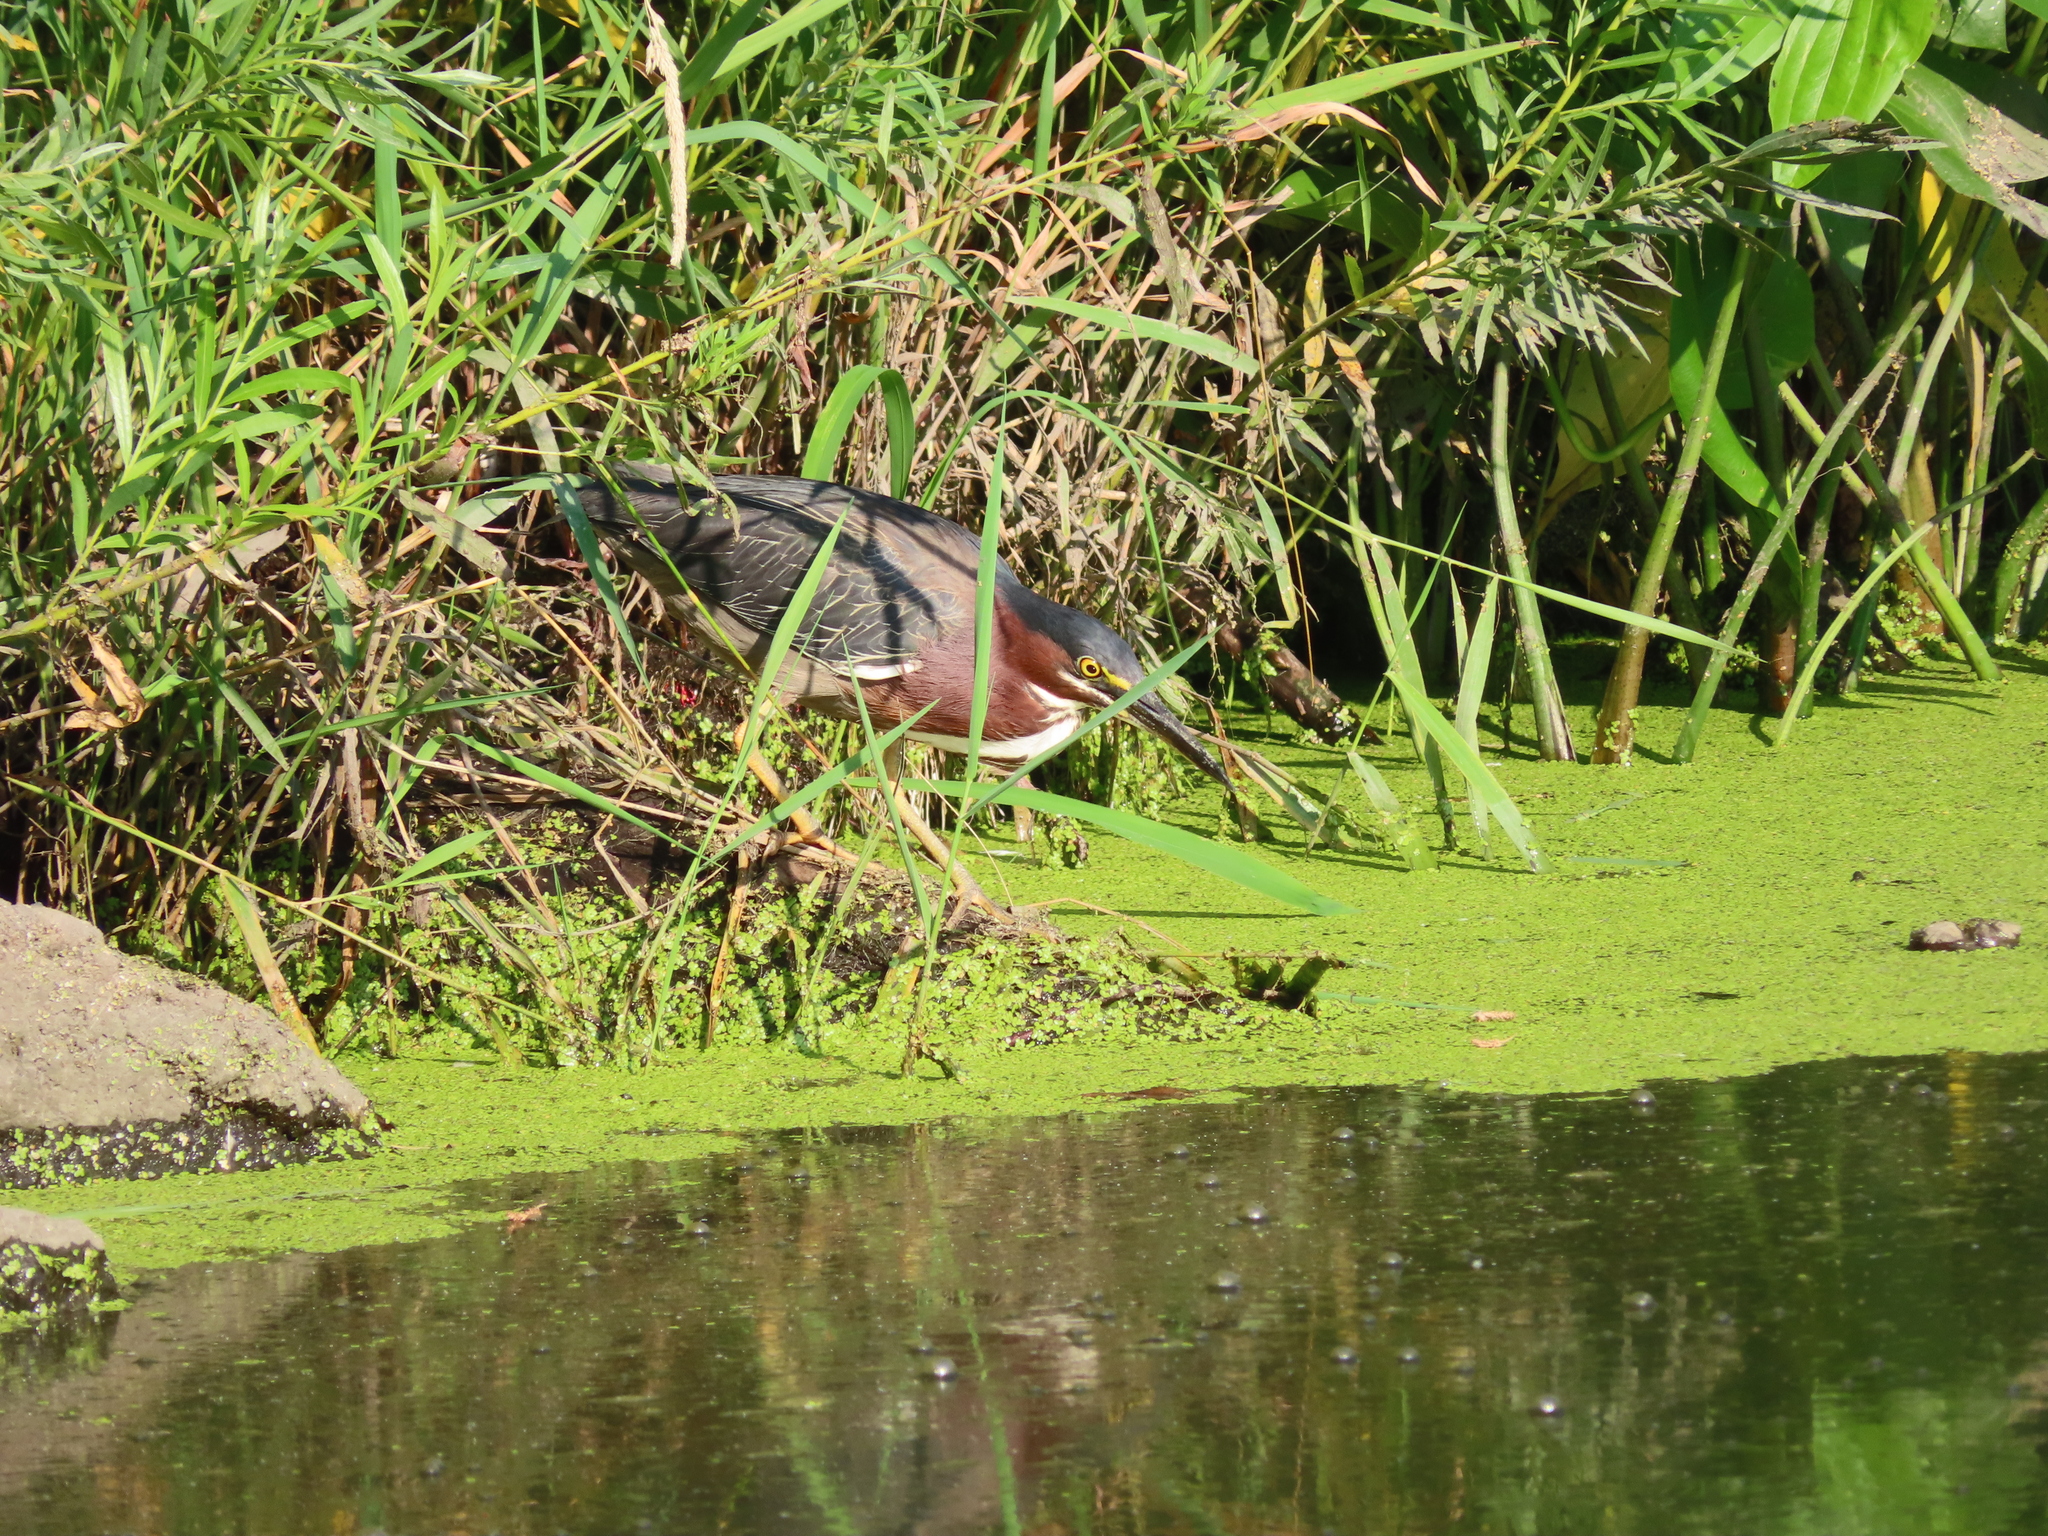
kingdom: Animalia
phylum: Chordata
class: Aves
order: Pelecaniformes
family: Ardeidae
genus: Butorides
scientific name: Butorides virescens
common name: Green heron
